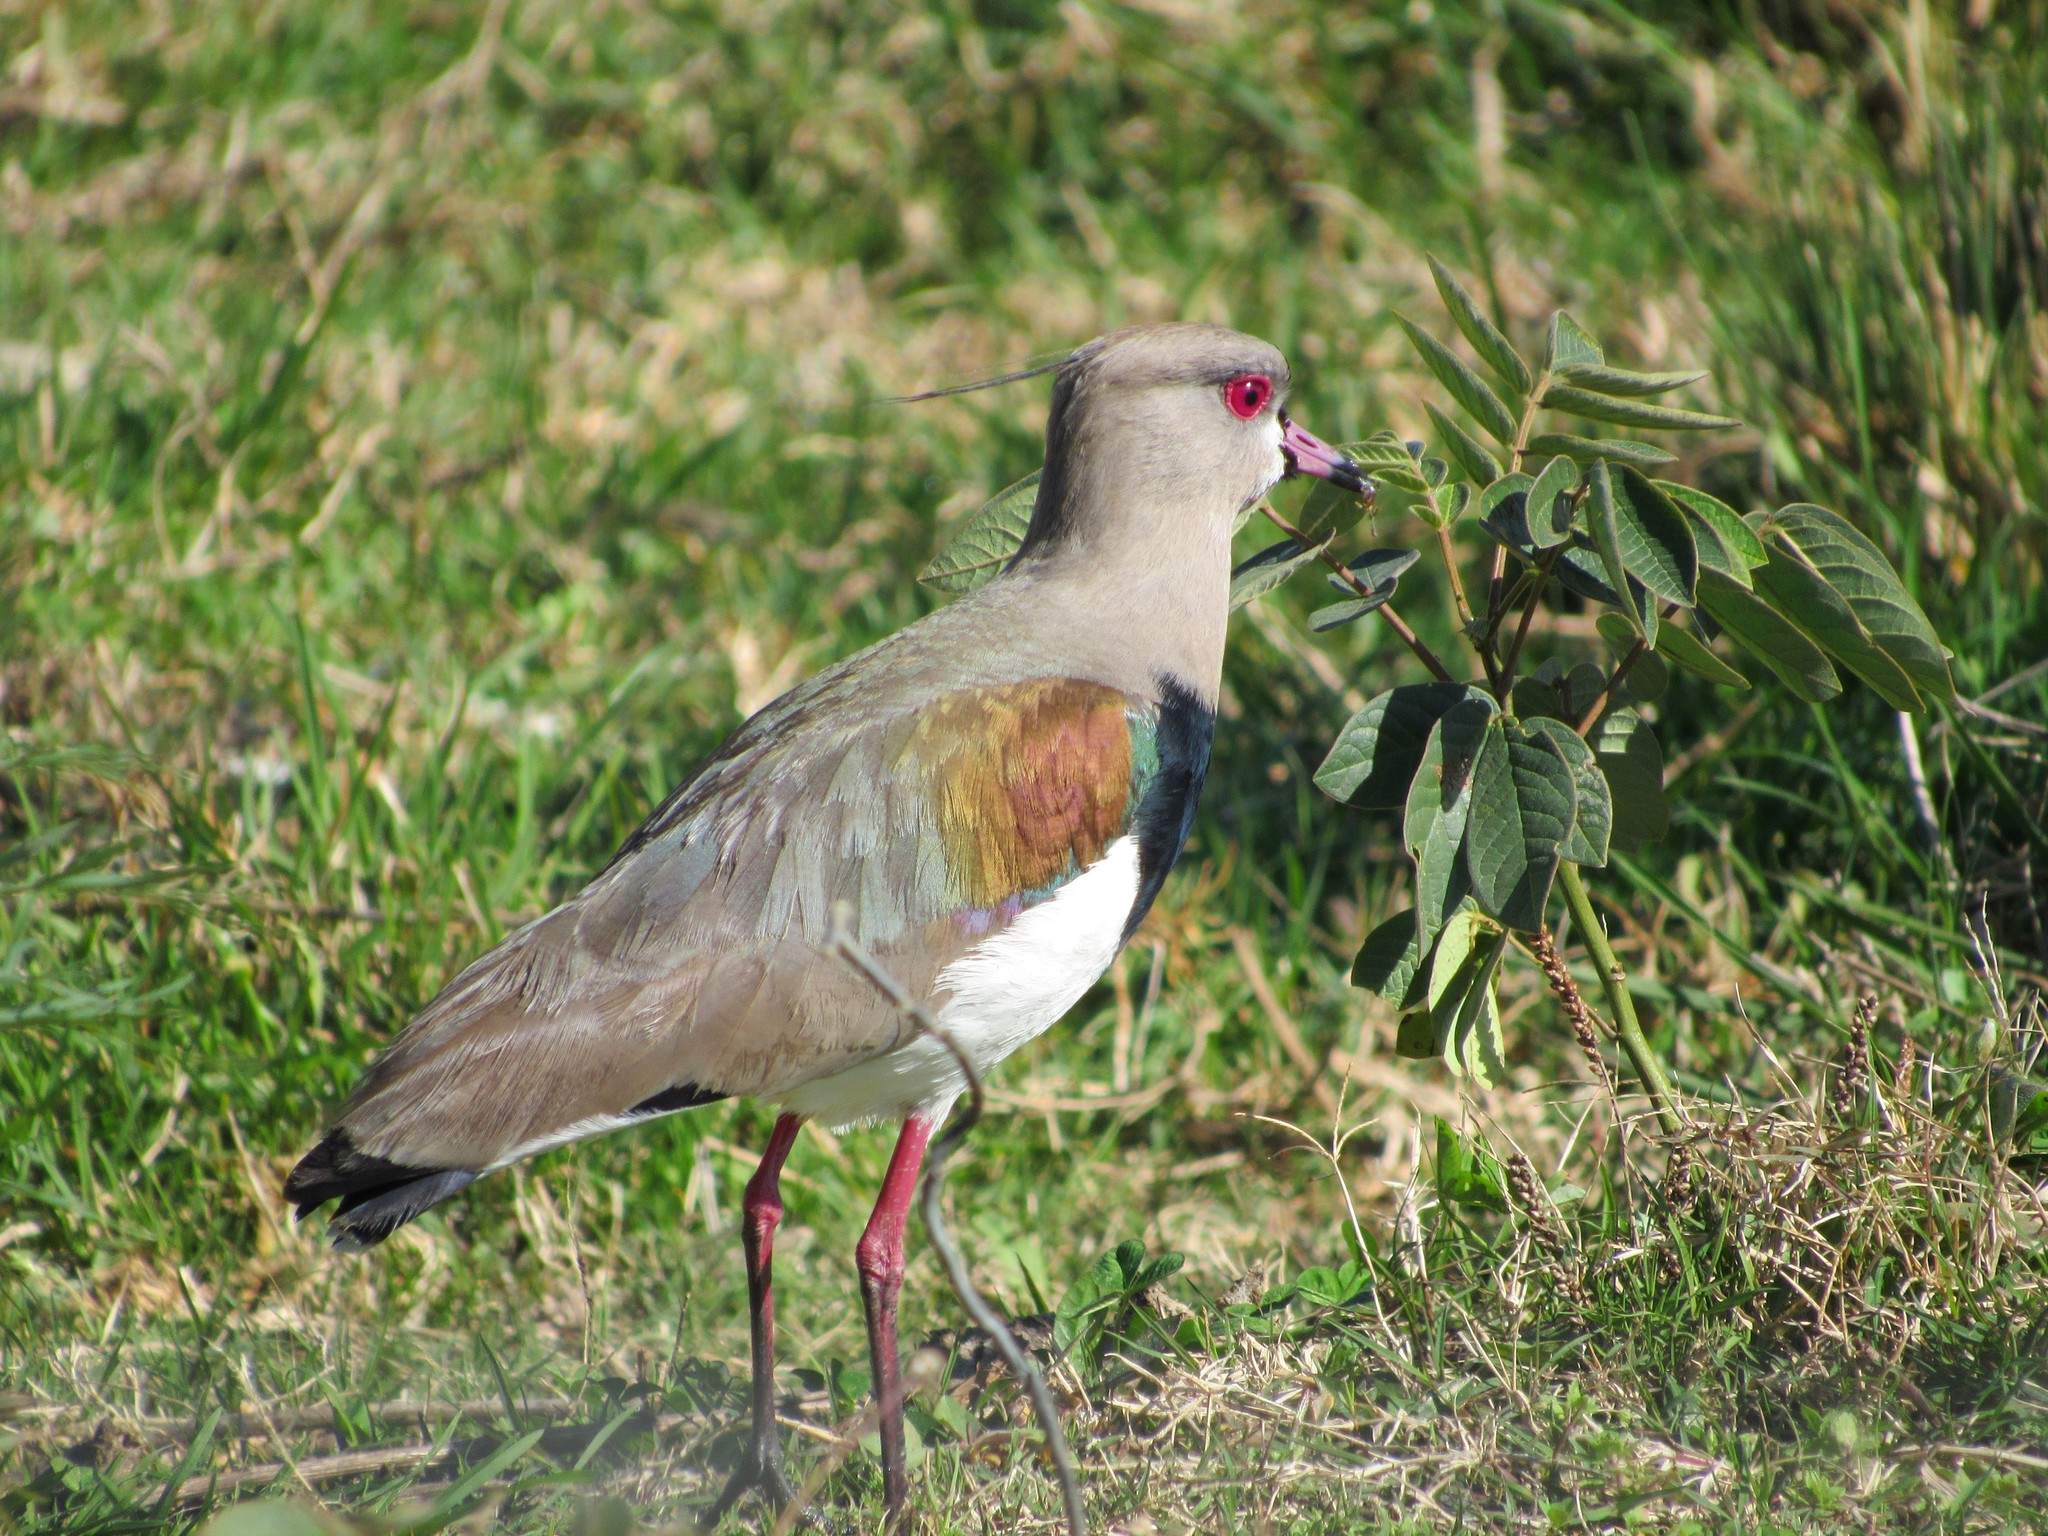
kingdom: Animalia
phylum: Chordata
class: Aves
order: Charadriiformes
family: Charadriidae
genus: Vanellus
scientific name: Vanellus chilensis
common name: Southern lapwing
